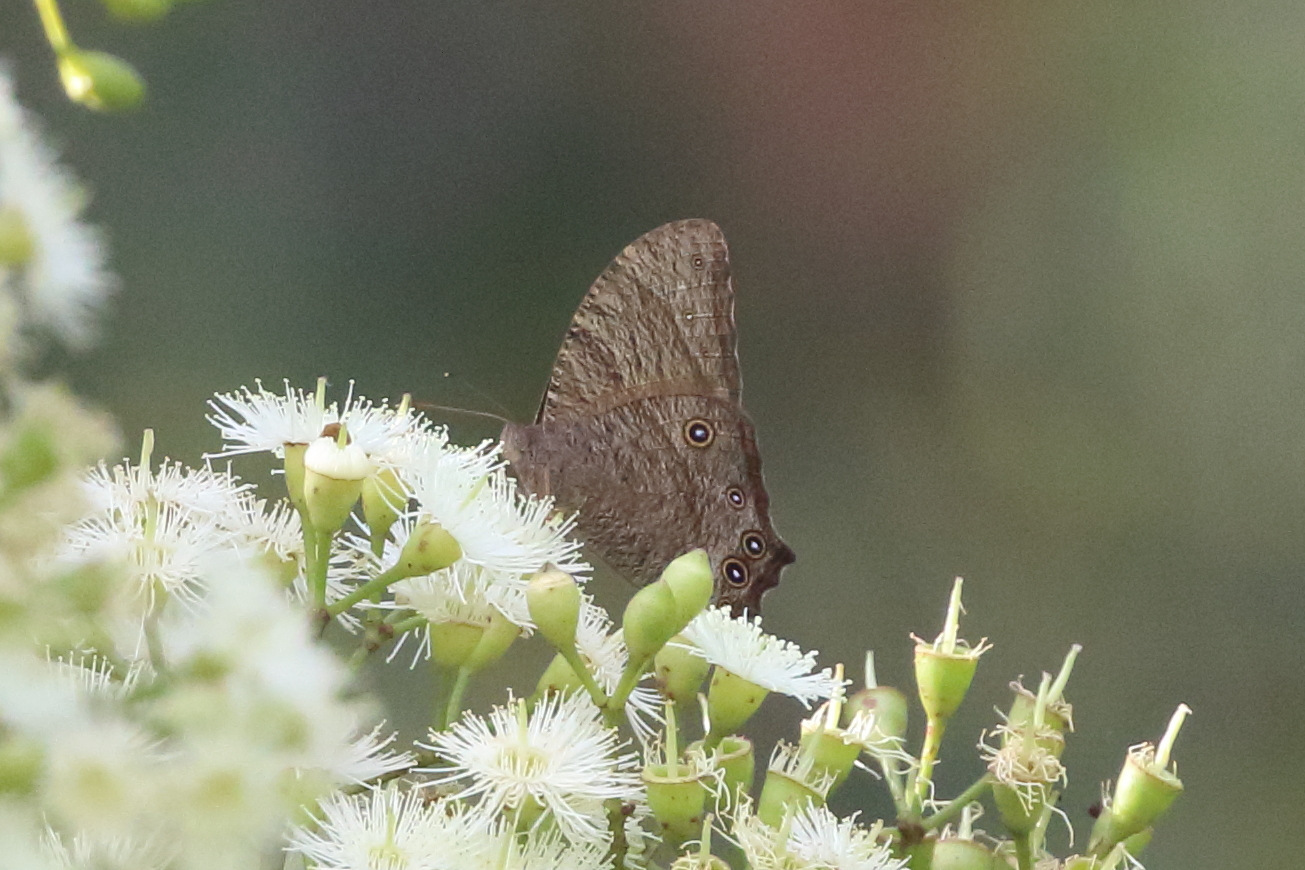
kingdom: Animalia
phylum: Arthropoda
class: Insecta
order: Lepidoptera
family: Nymphalidae
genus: Melanitis
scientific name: Melanitis leda
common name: Twilight brown
